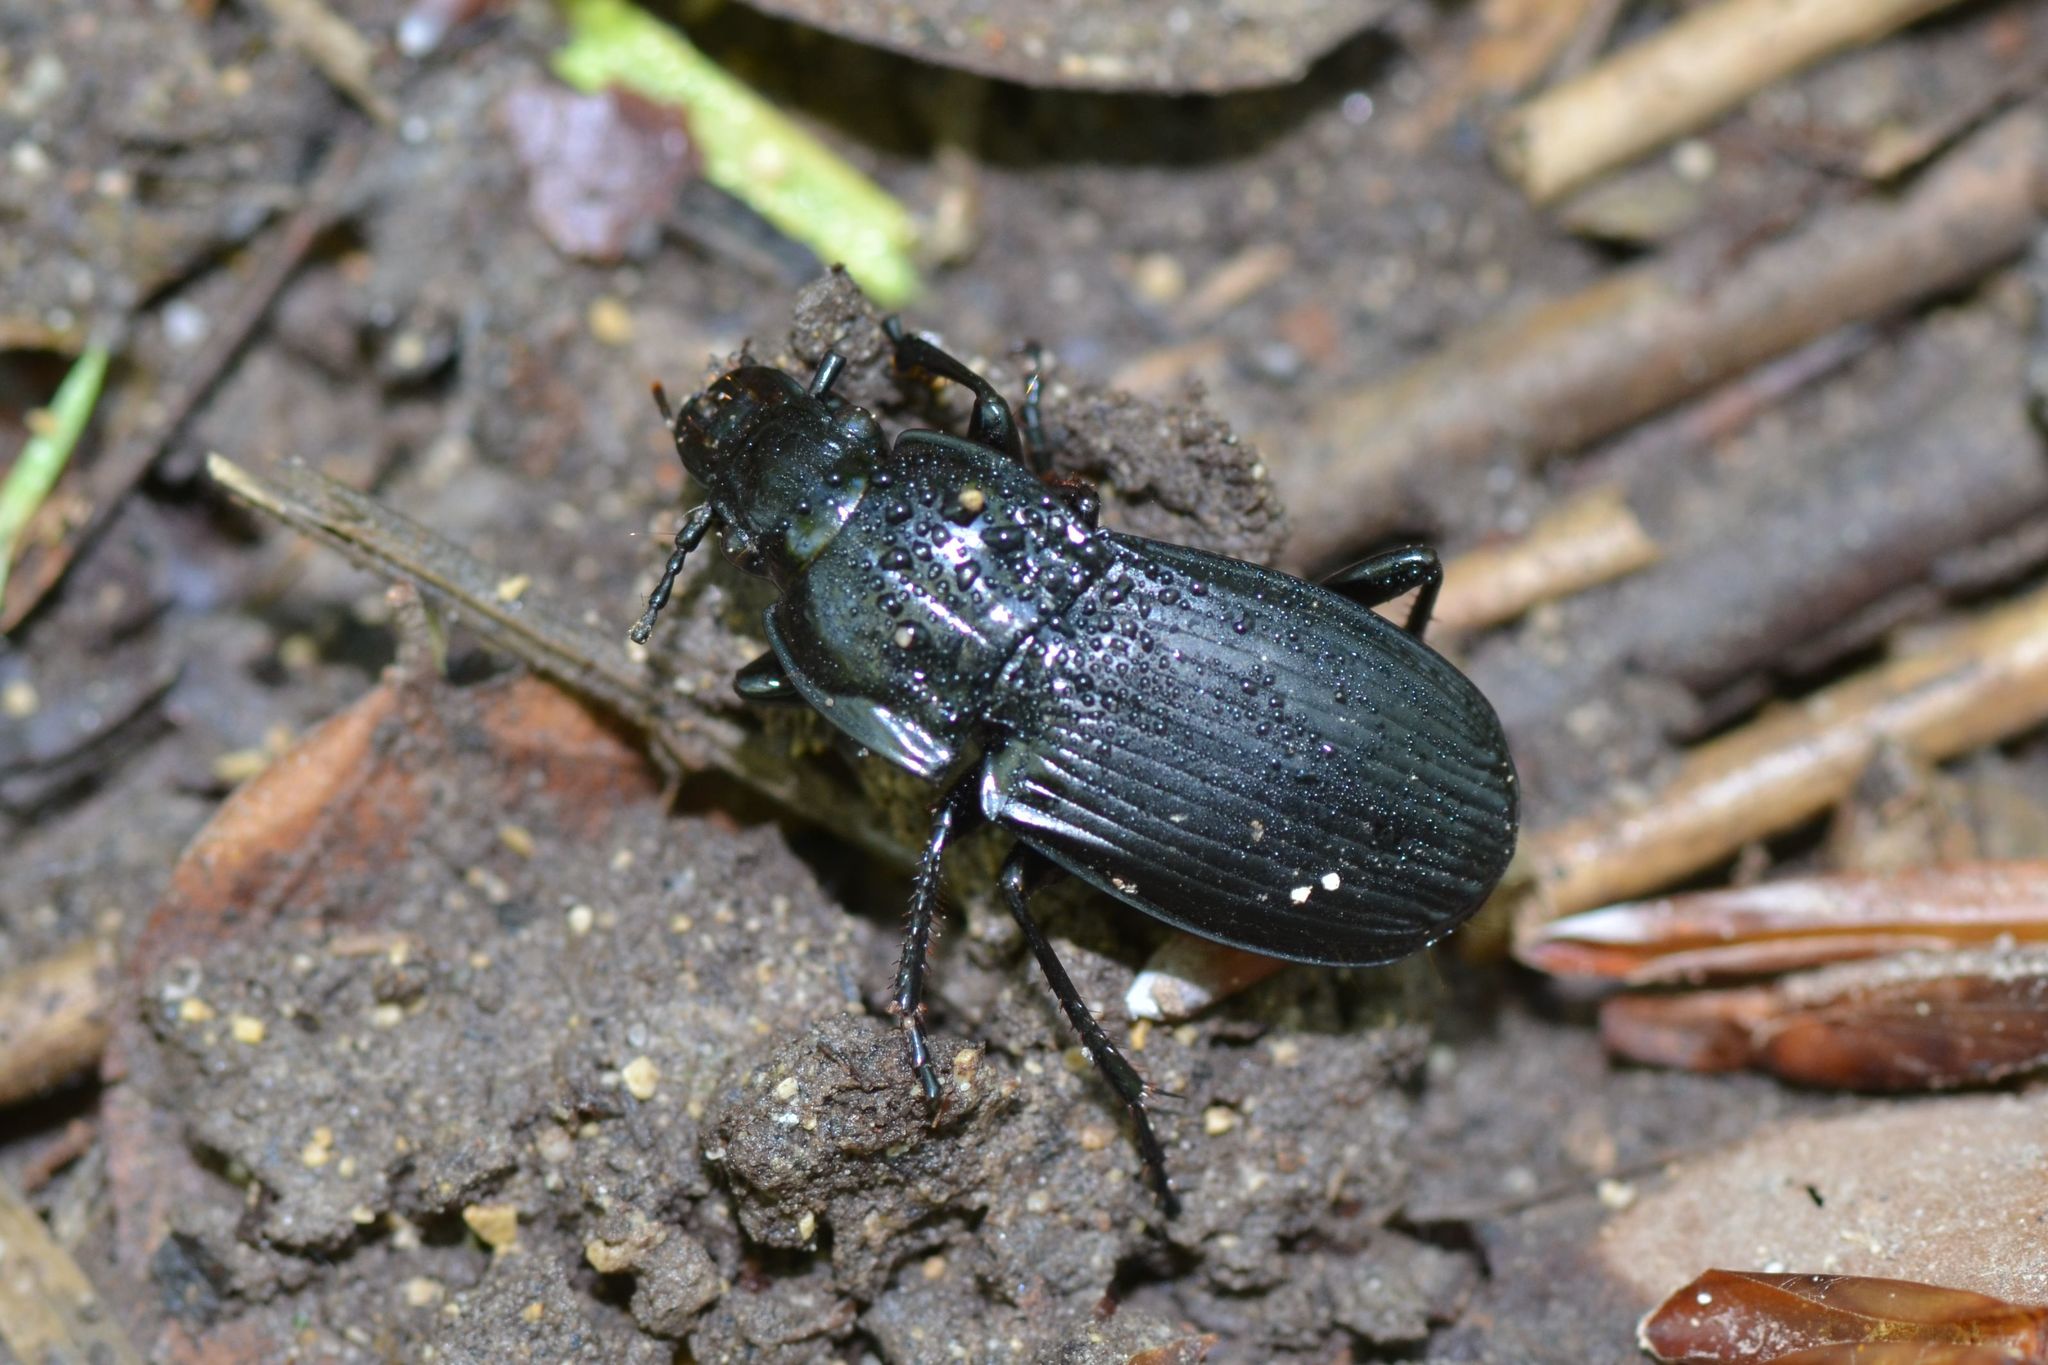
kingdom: Animalia
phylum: Arthropoda
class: Insecta
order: Coleoptera
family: Carabidae
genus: Abax
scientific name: Abax parallelepipedus
